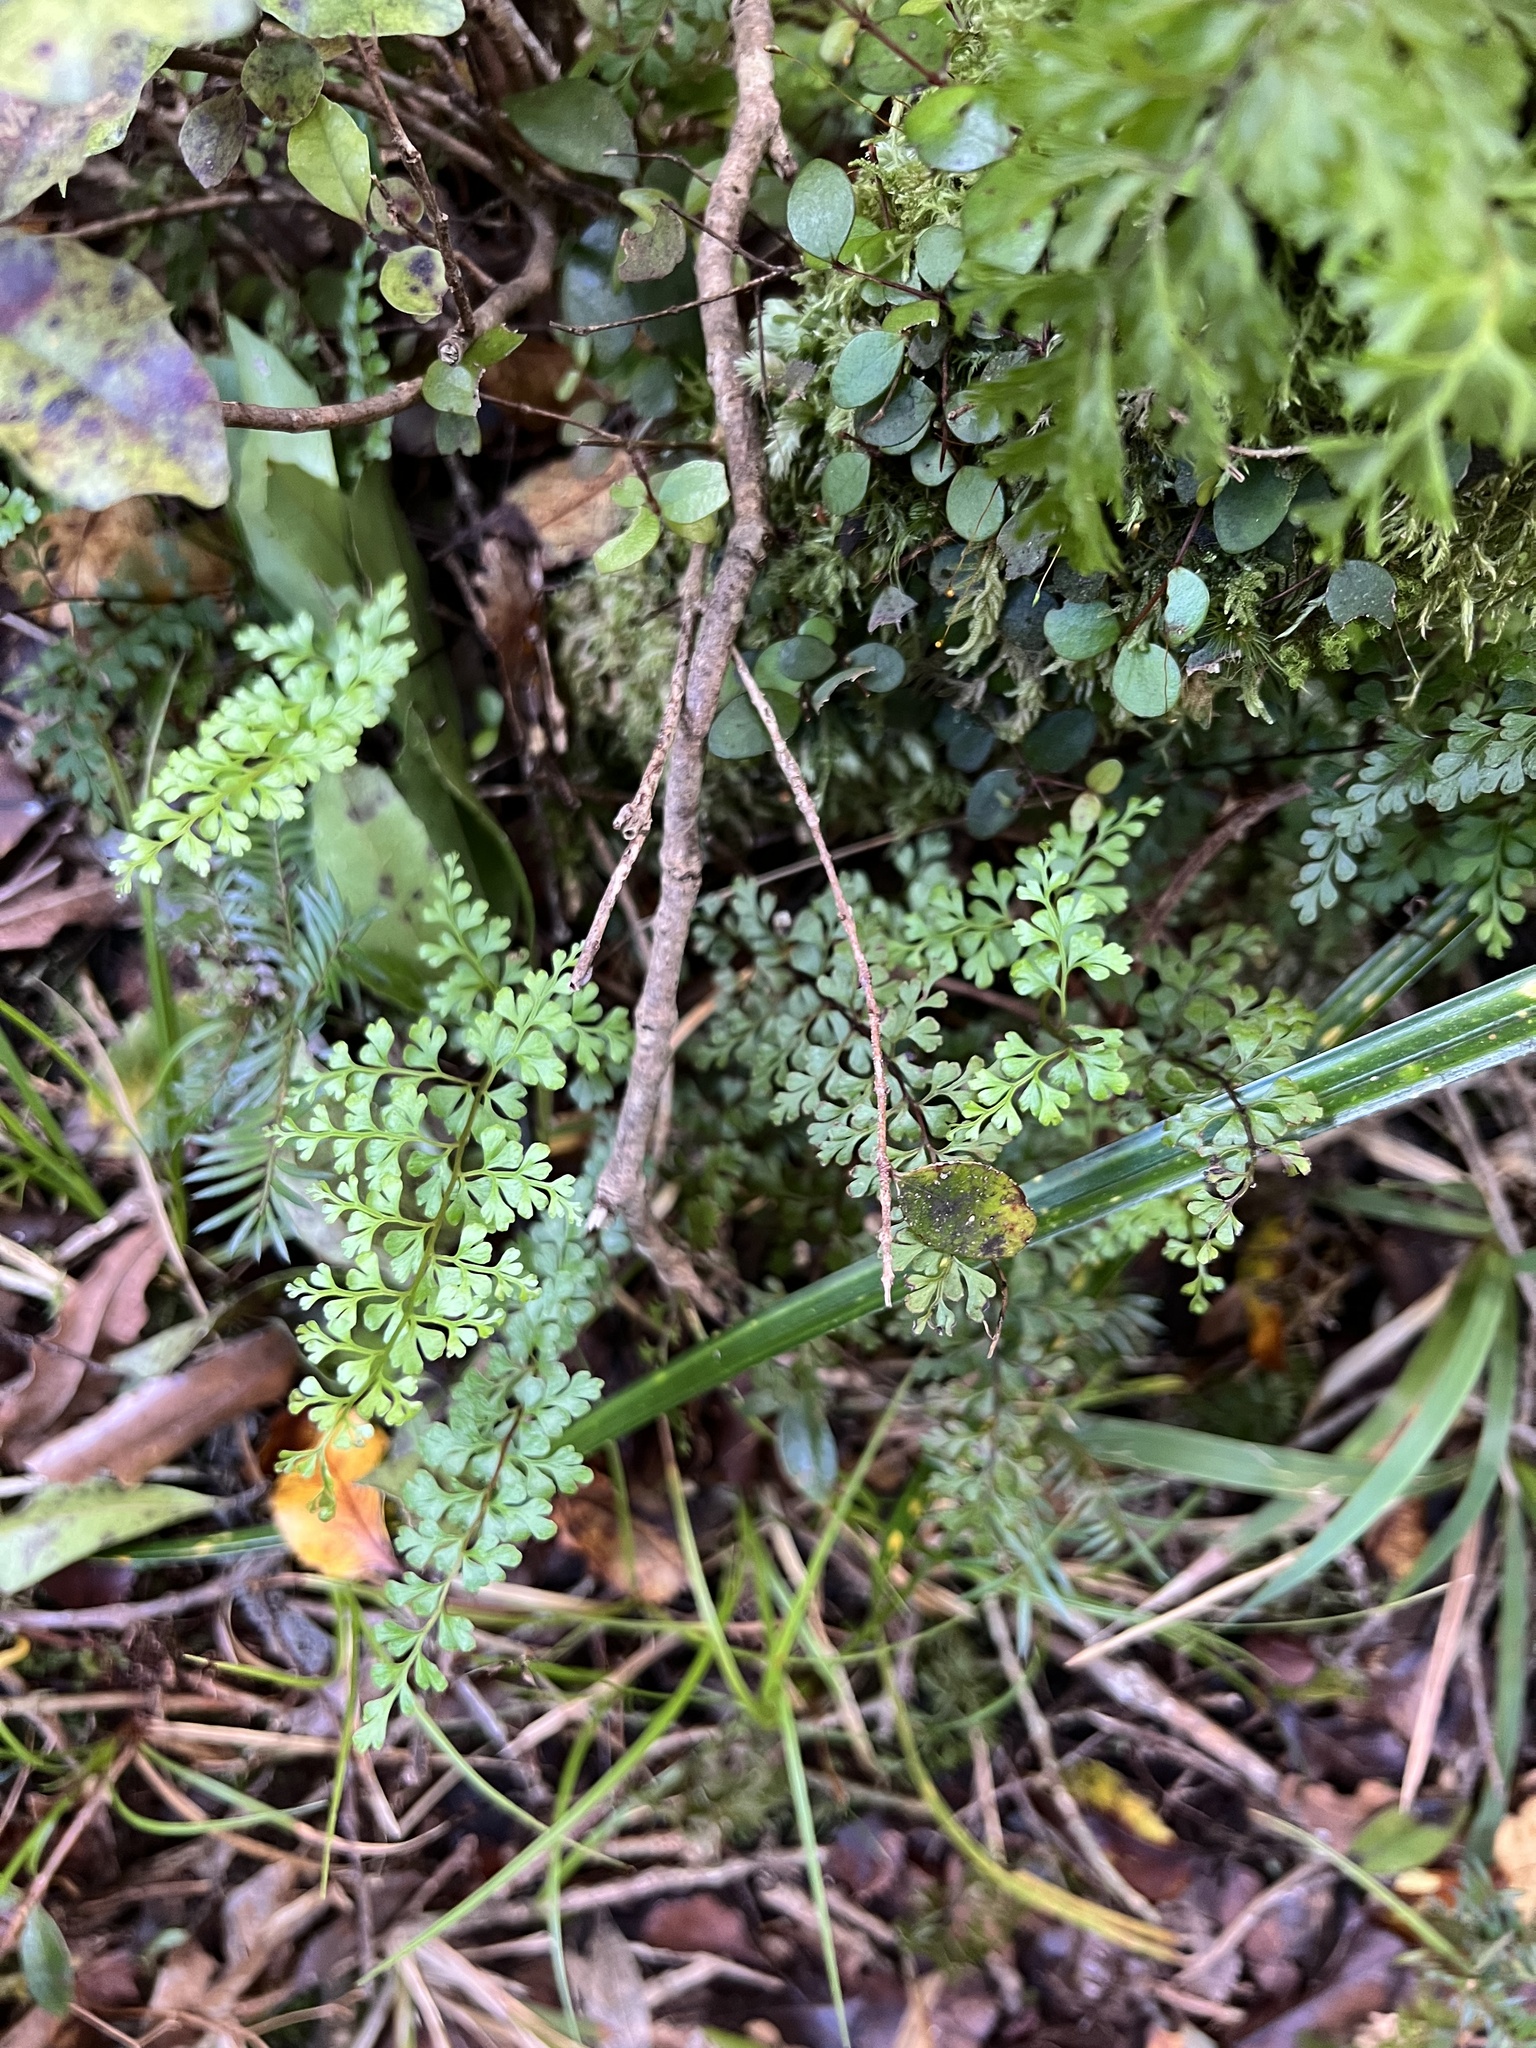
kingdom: Plantae
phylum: Tracheophyta
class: Polypodiopsida
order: Polypodiales
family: Lindsaeaceae
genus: Lindsaea
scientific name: Lindsaea trichomanoides
